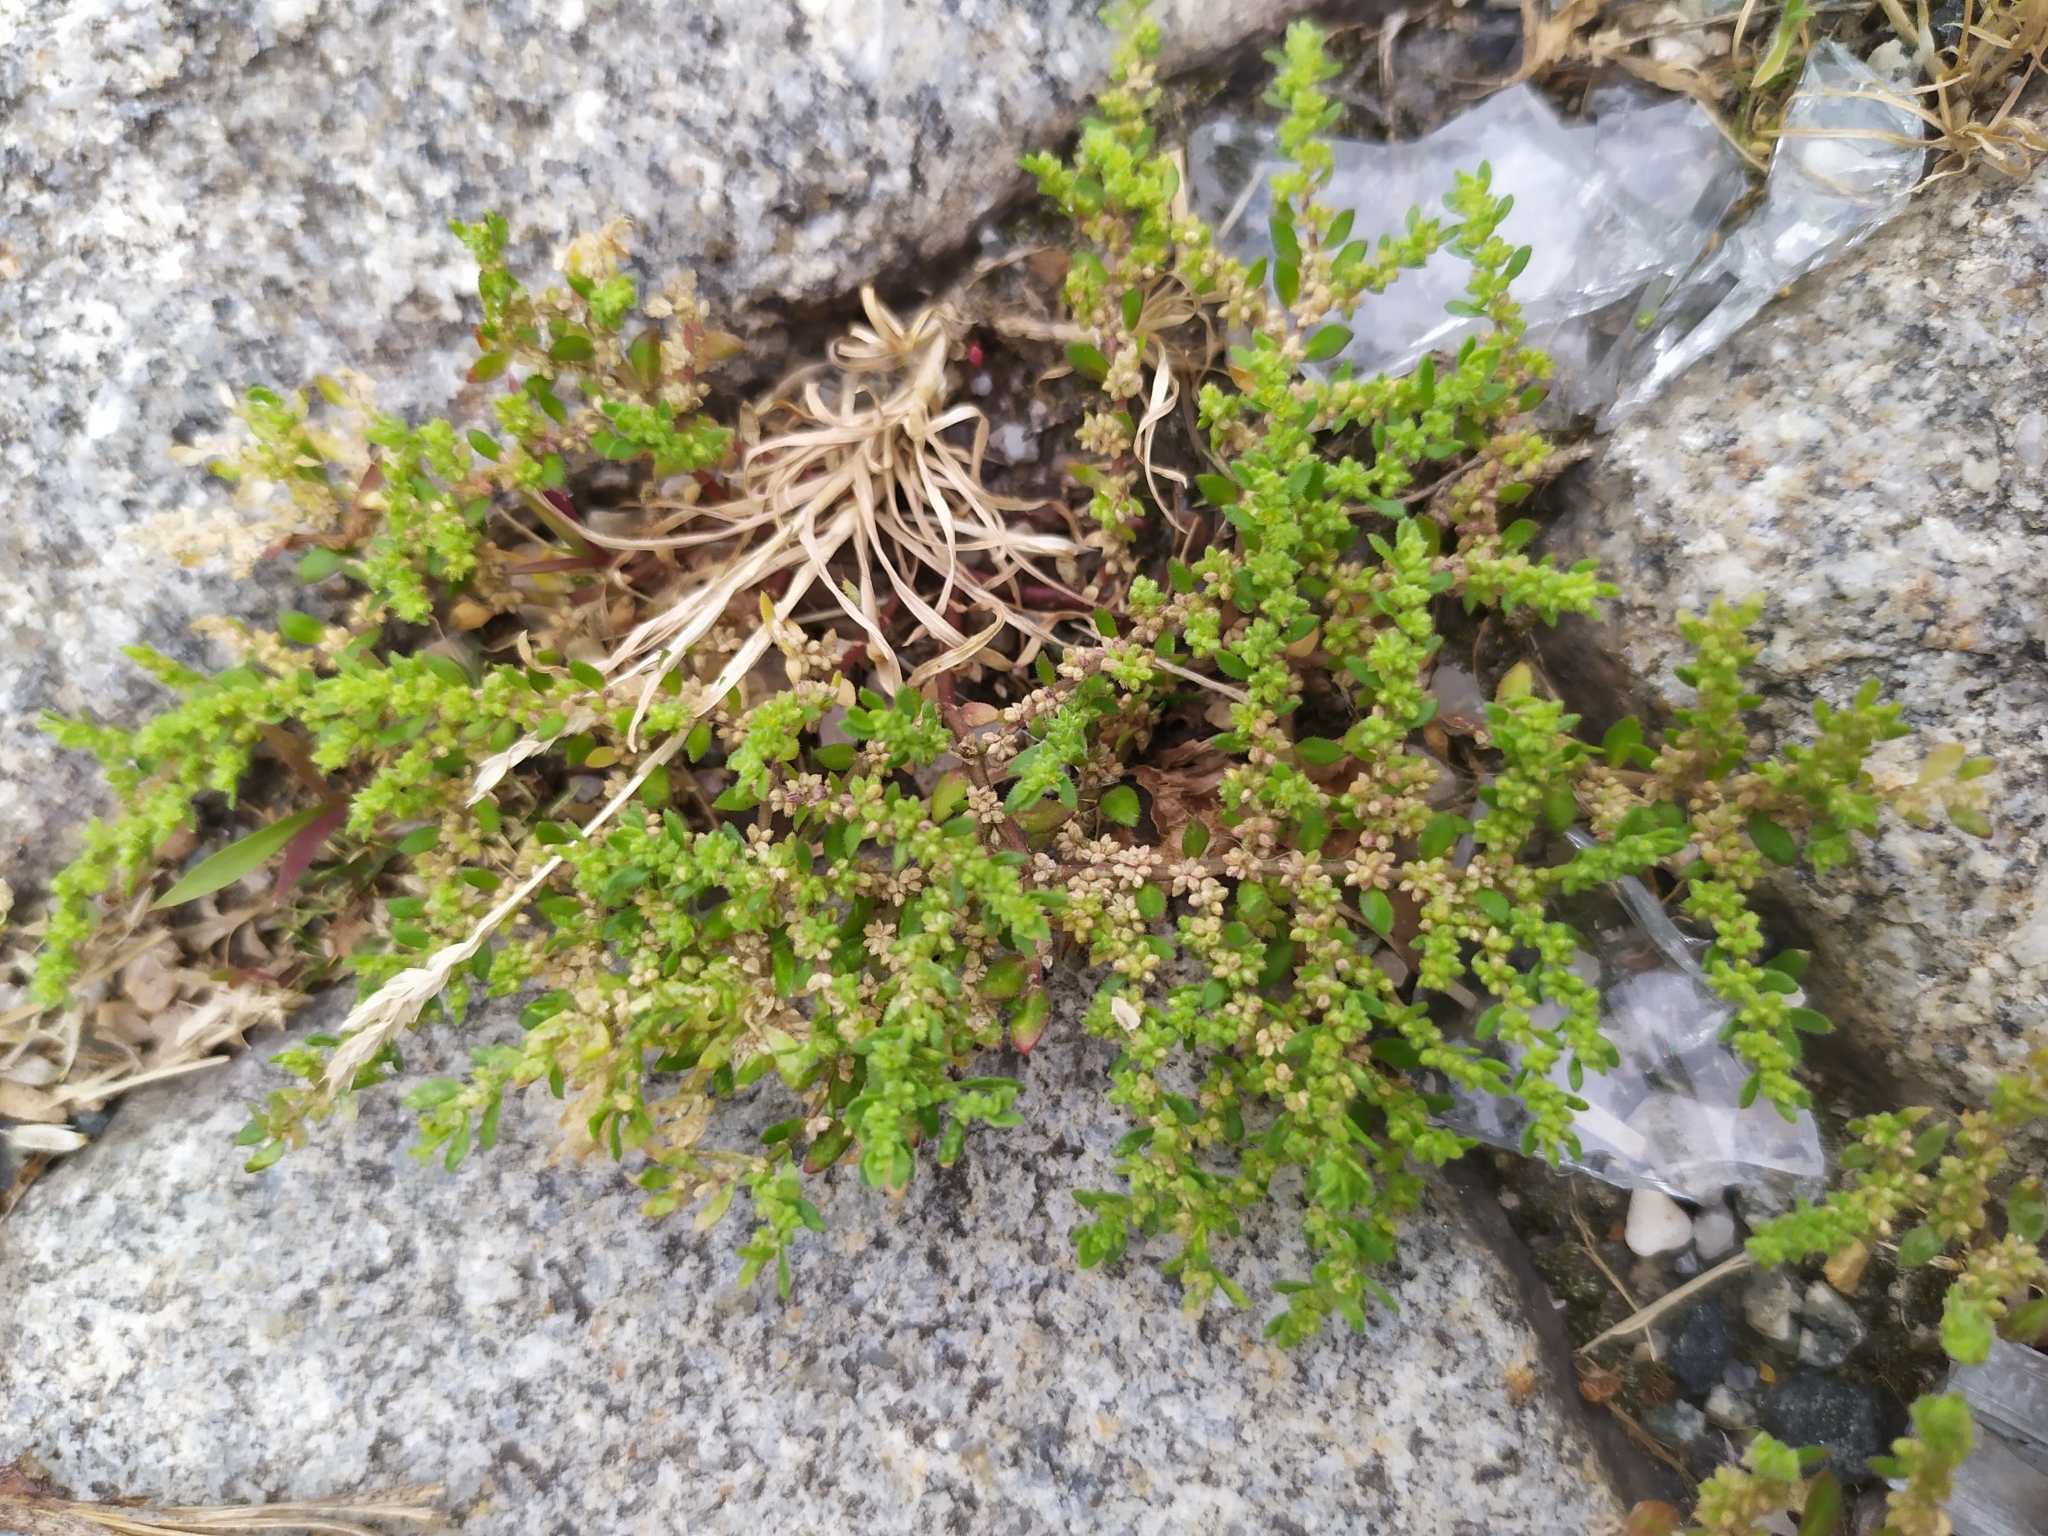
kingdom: Plantae
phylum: Tracheophyta
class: Magnoliopsida
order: Caryophyllales
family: Caryophyllaceae
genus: Herniaria
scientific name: Herniaria hirsuta
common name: Hairy rupturewort
